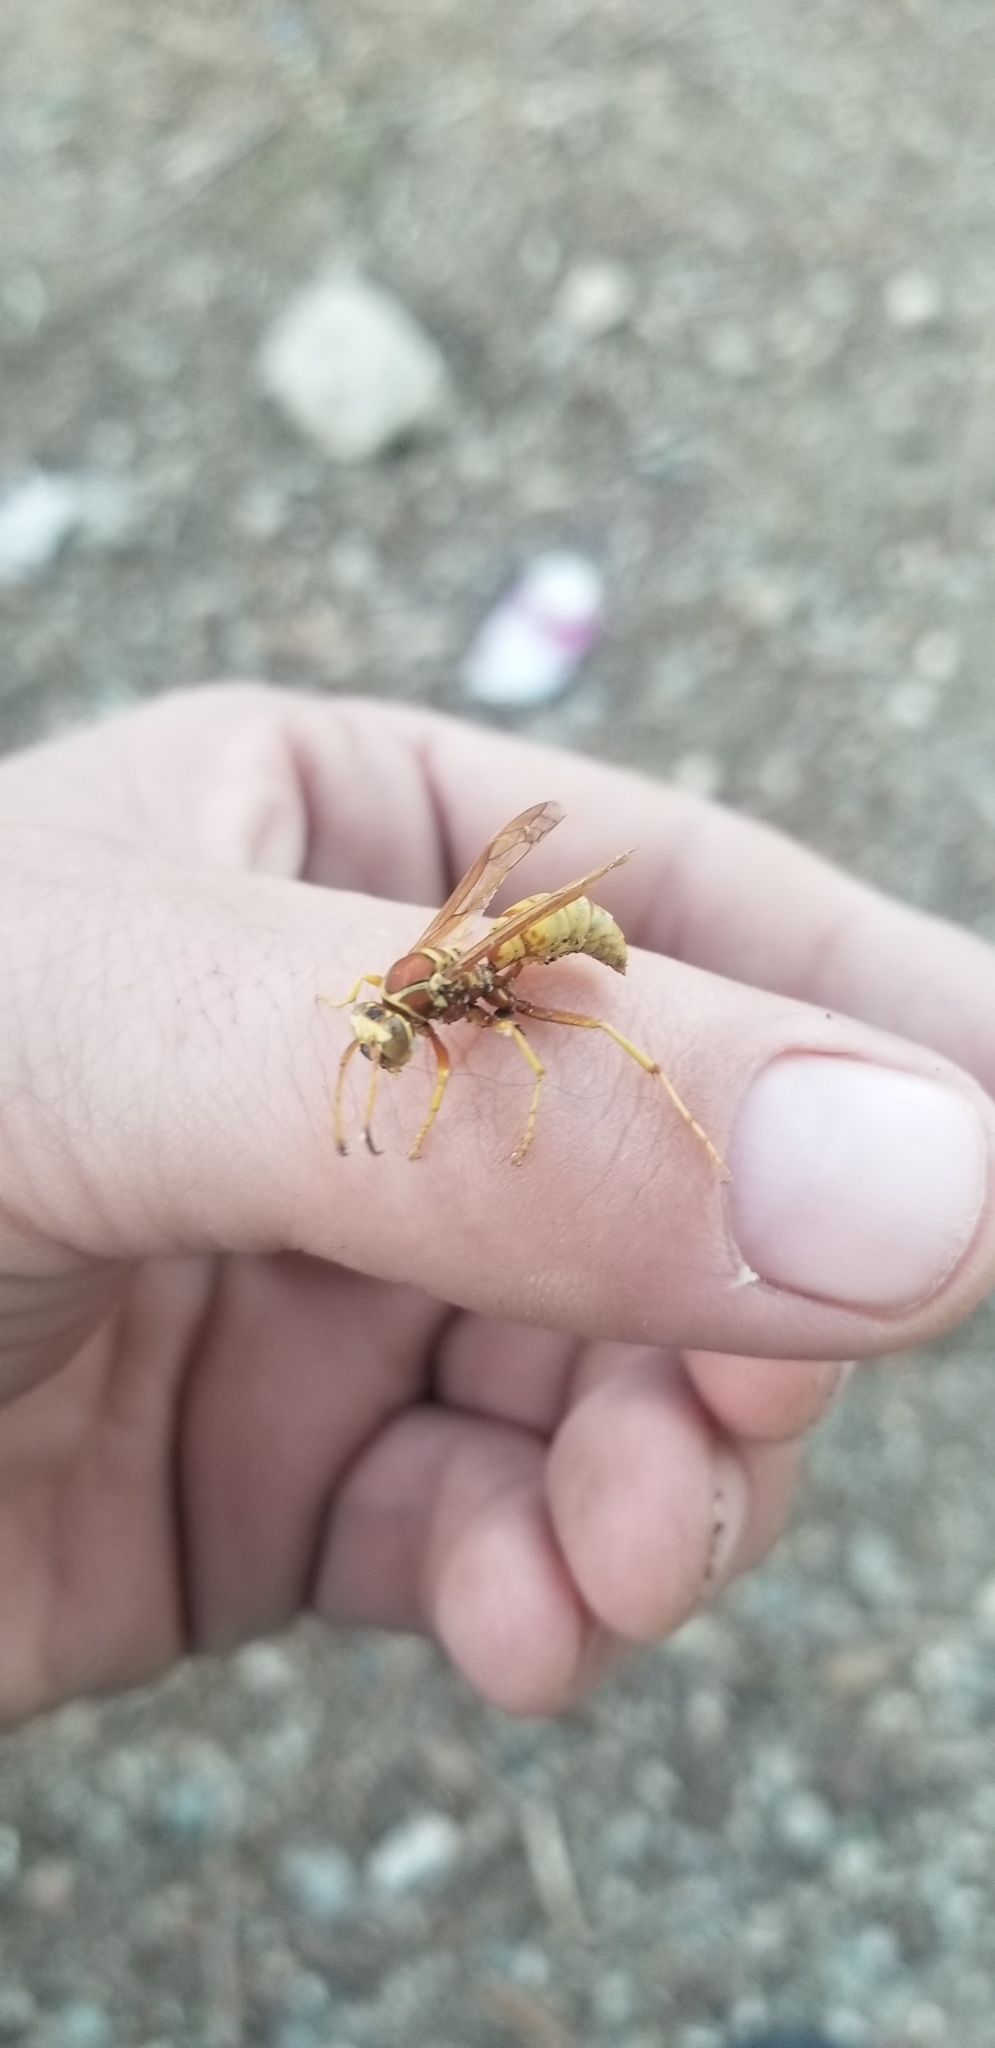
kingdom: Animalia
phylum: Arthropoda
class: Insecta
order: Hymenoptera
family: Eumenidae
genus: Polistes
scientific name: Polistes aurifer
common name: Paper wasp
